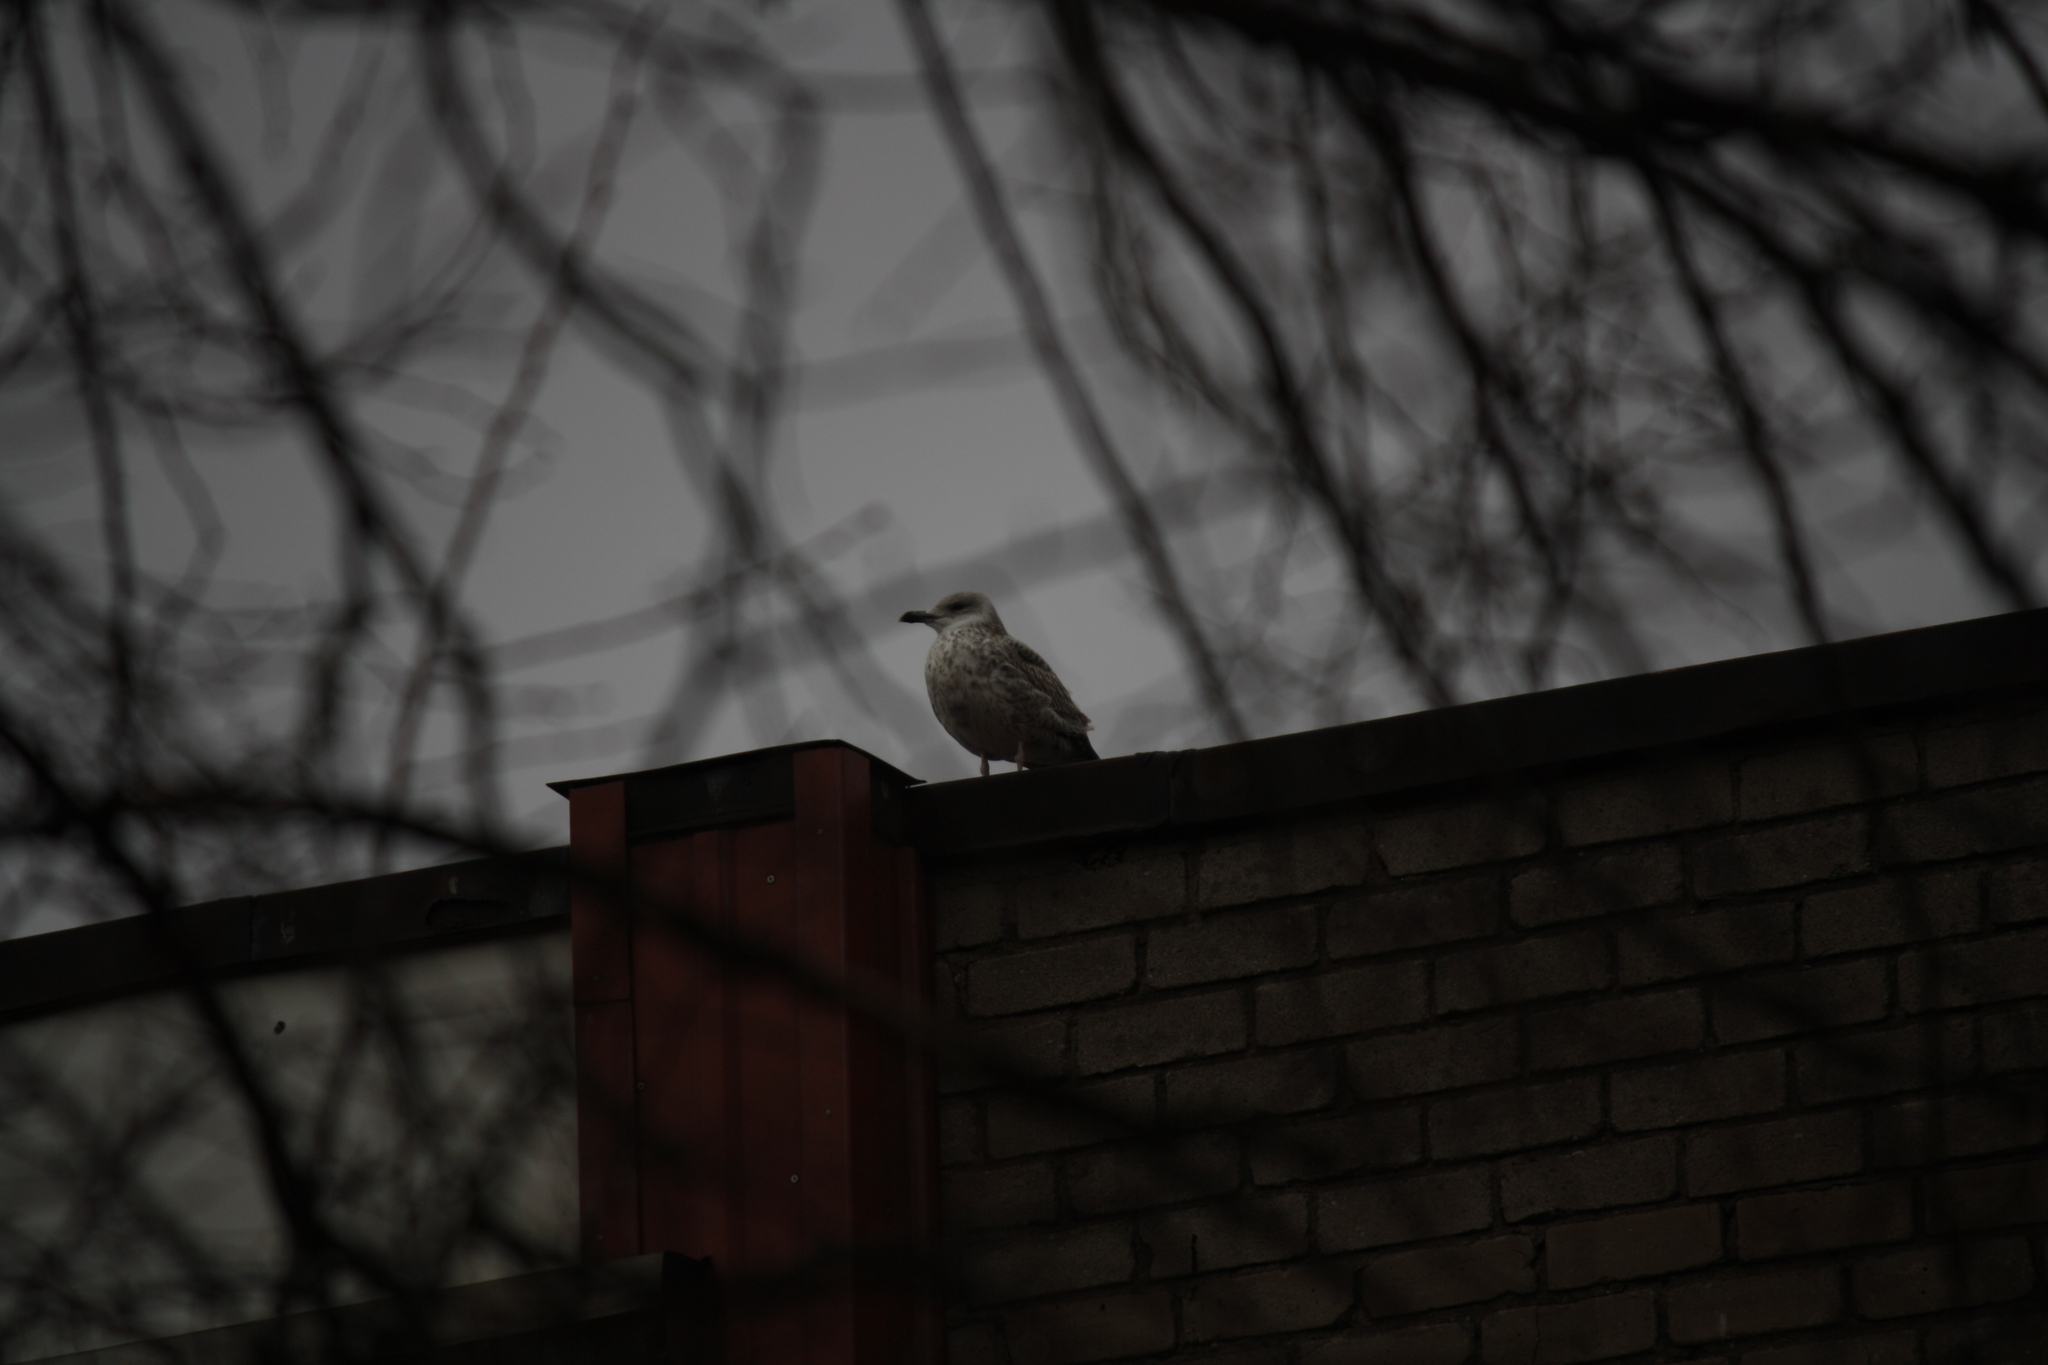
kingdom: Animalia
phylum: Chordata
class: Aves
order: Charadriiformes
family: Laridae
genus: Larus
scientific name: Larus argentatus
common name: Herring gull
